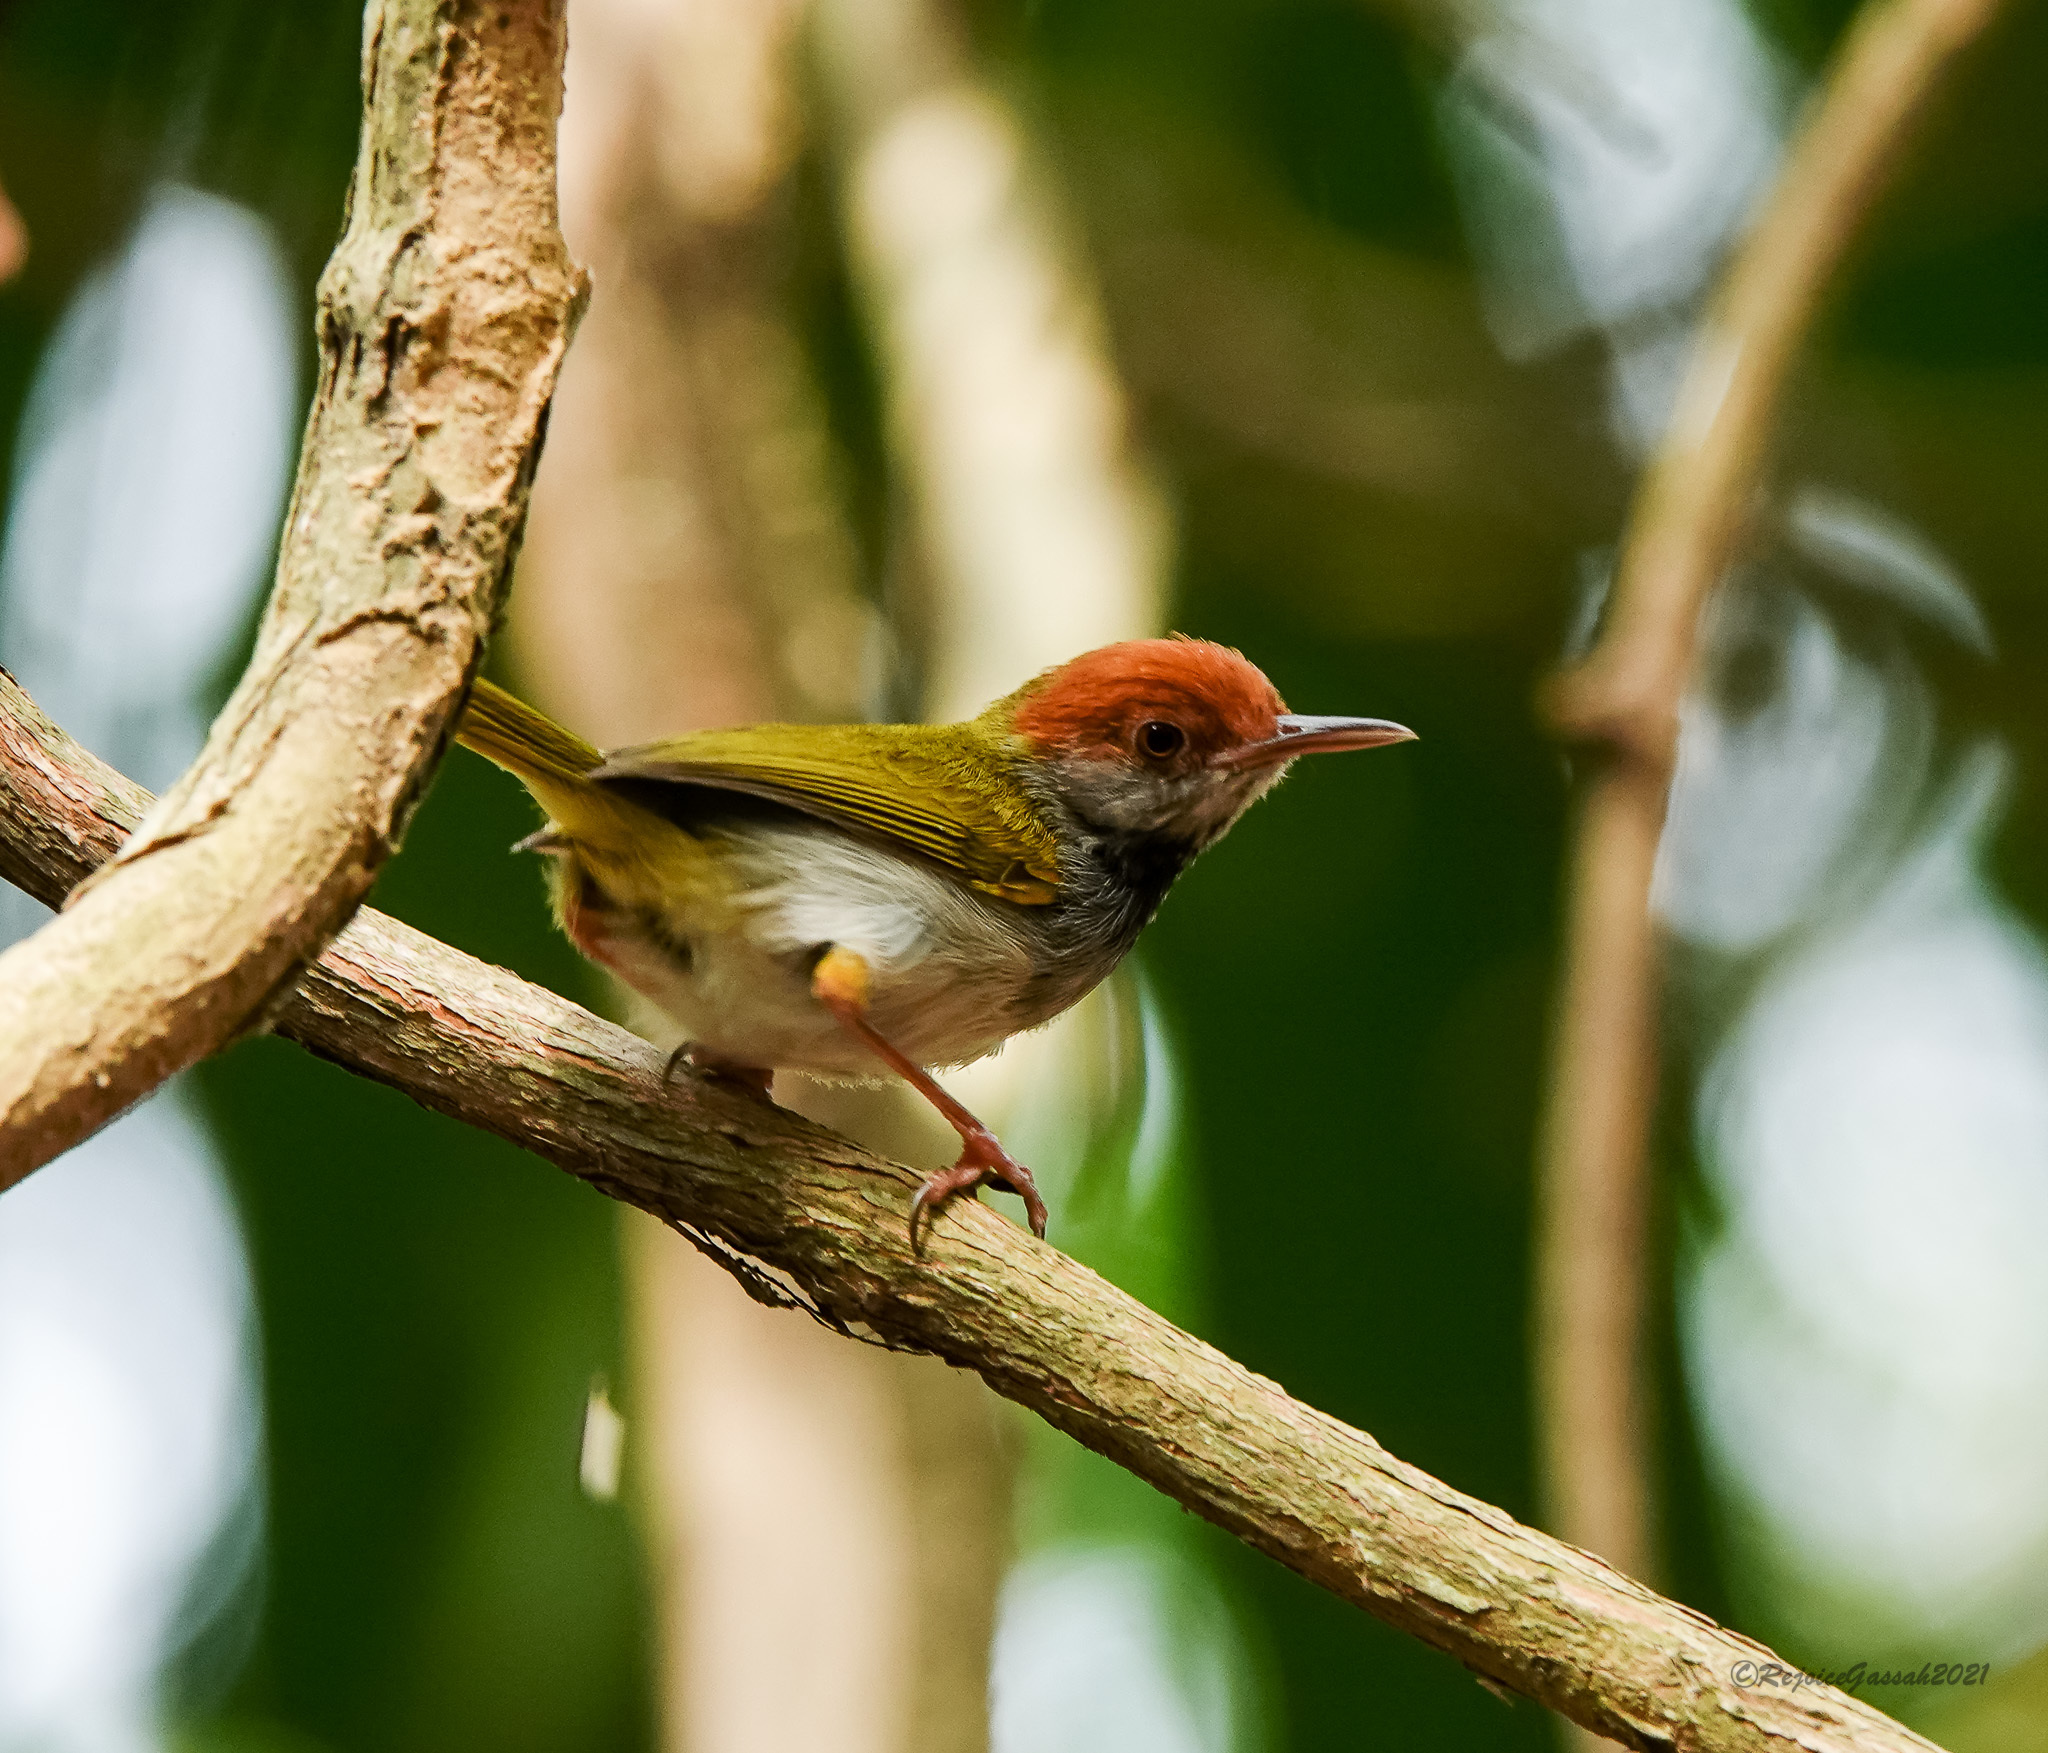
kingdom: Animalia
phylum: Chordata
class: Aves
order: Passeriformes
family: Cisticolidae
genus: Orthotomus
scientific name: Orthotomus atrogularis
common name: Dark-necked tailorbird
